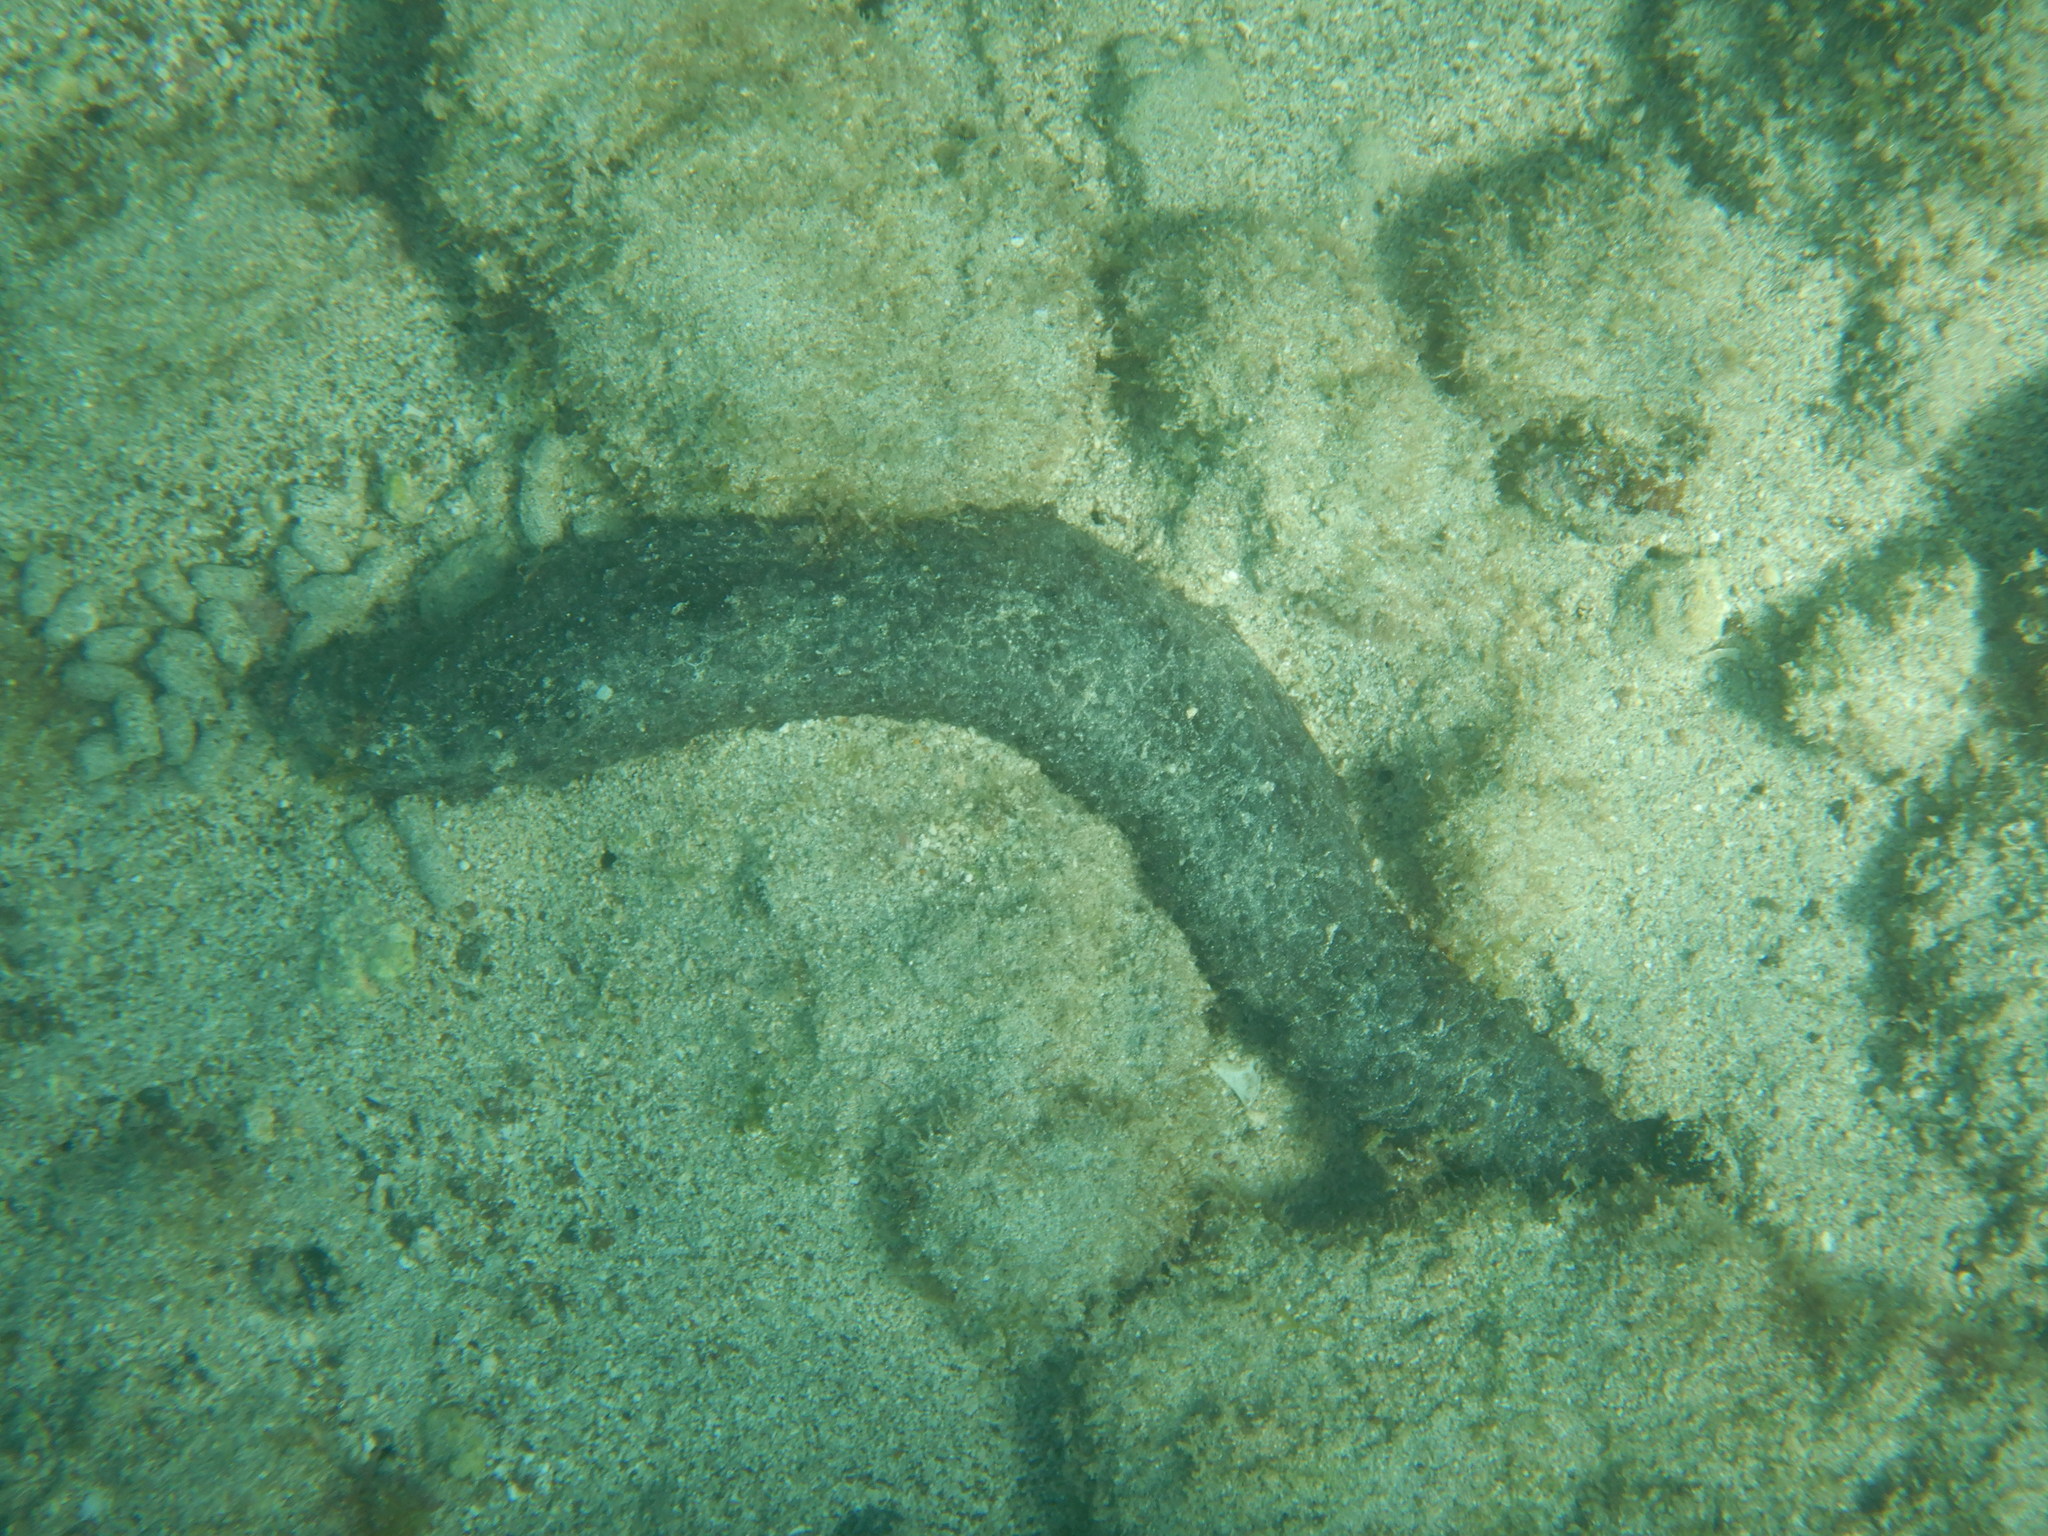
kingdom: Animalia
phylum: Echinodermata
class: Holothuroidea
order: Holothuriida
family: Holothuriidae
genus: Holothuria
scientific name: Holothuria mammata
